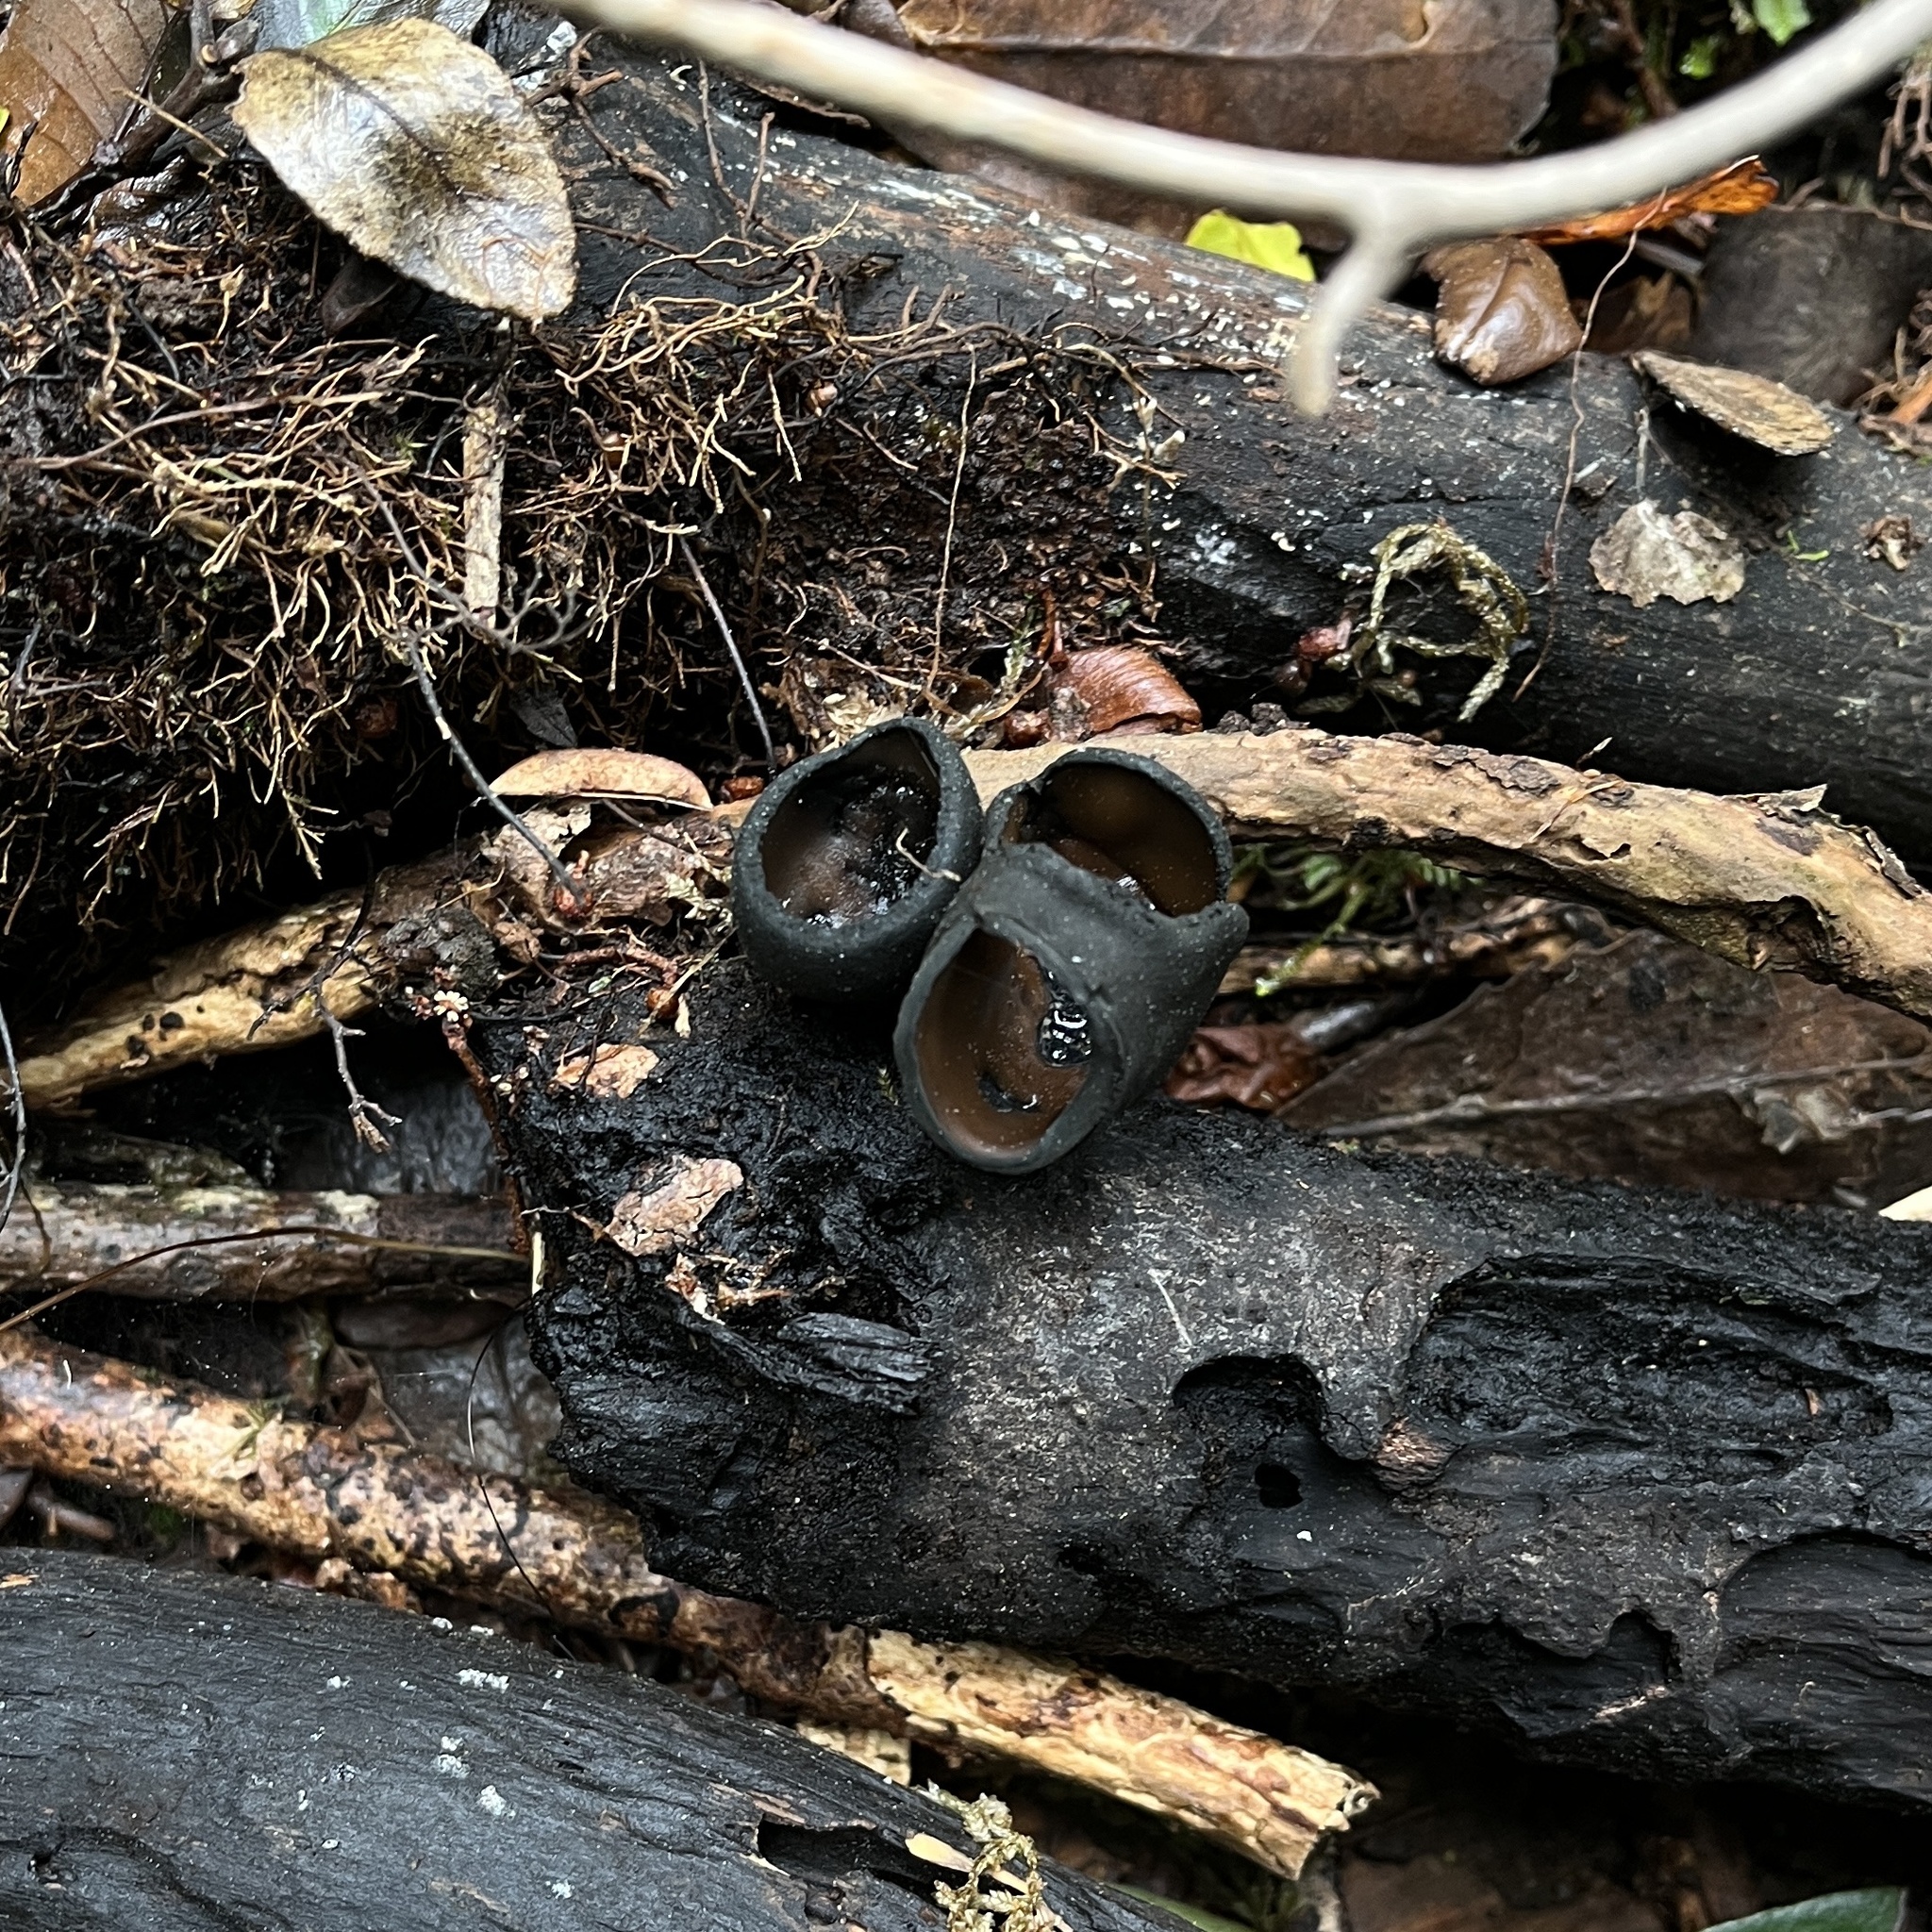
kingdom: Fungi
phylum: Ascomycota
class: Pezizomycetes
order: Pezizales
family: Sarcosomataceae
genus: Plectania
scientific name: Plectania chilensis
